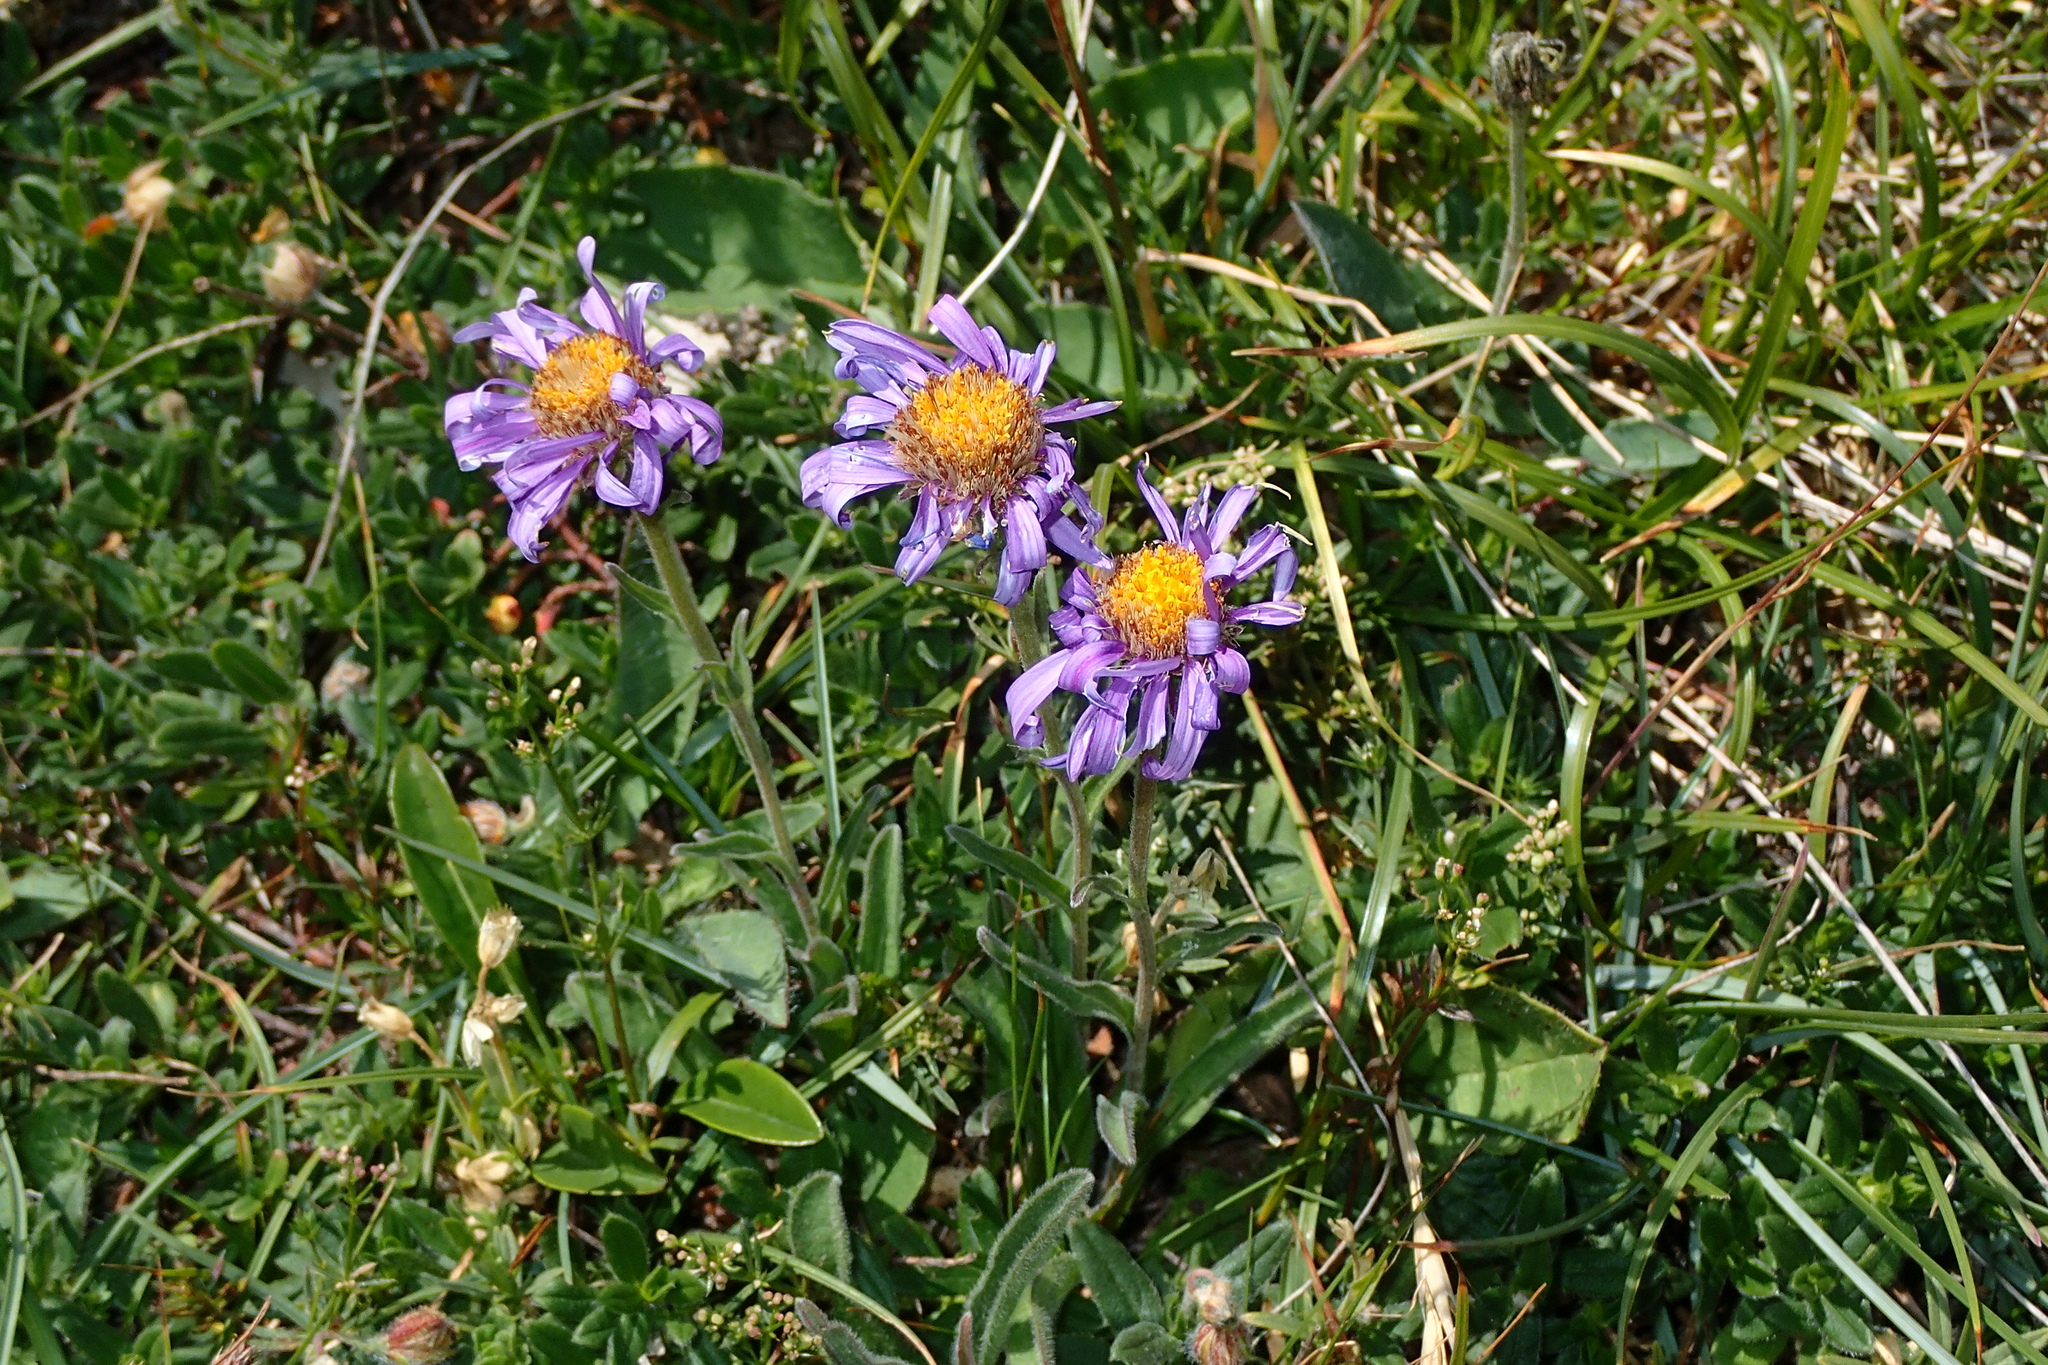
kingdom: Plantae
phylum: Tracheophyta
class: Magnoliopsida
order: Asterales
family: Asteraceae
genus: Aster
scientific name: Aster alpinus
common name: Alpine aster
